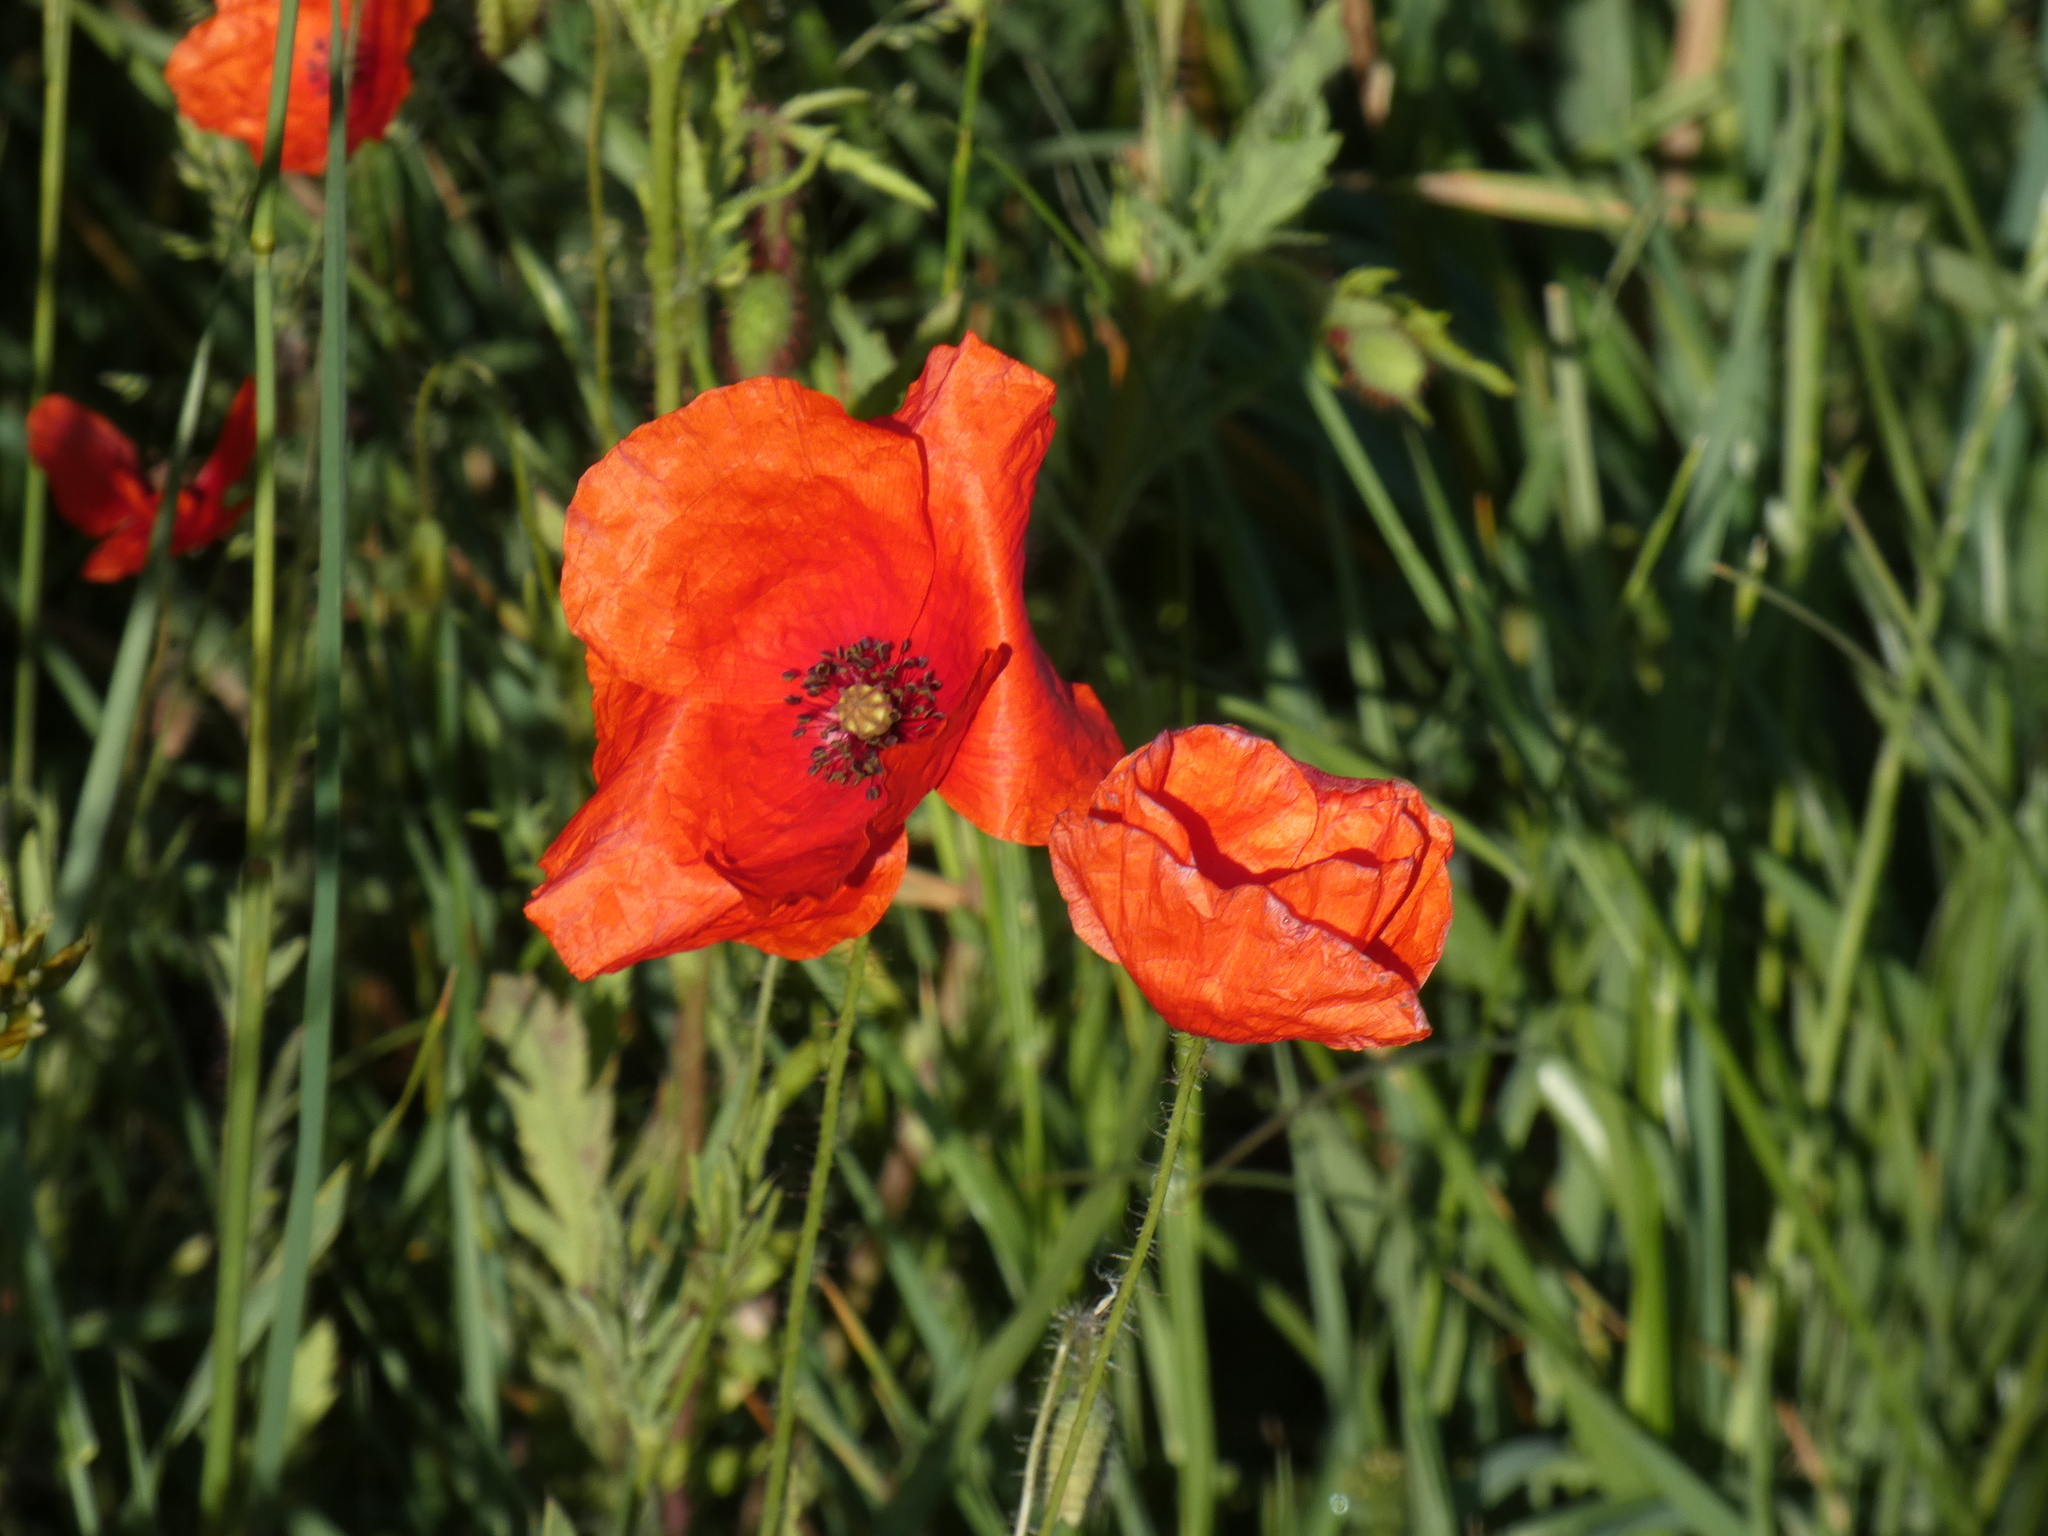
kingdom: Plantae
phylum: Tracheophyta
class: Magnoliopsida
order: Ranunculales
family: Papaveraceae
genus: Papaver
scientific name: Papaver rhoeas
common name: Corn poppy
